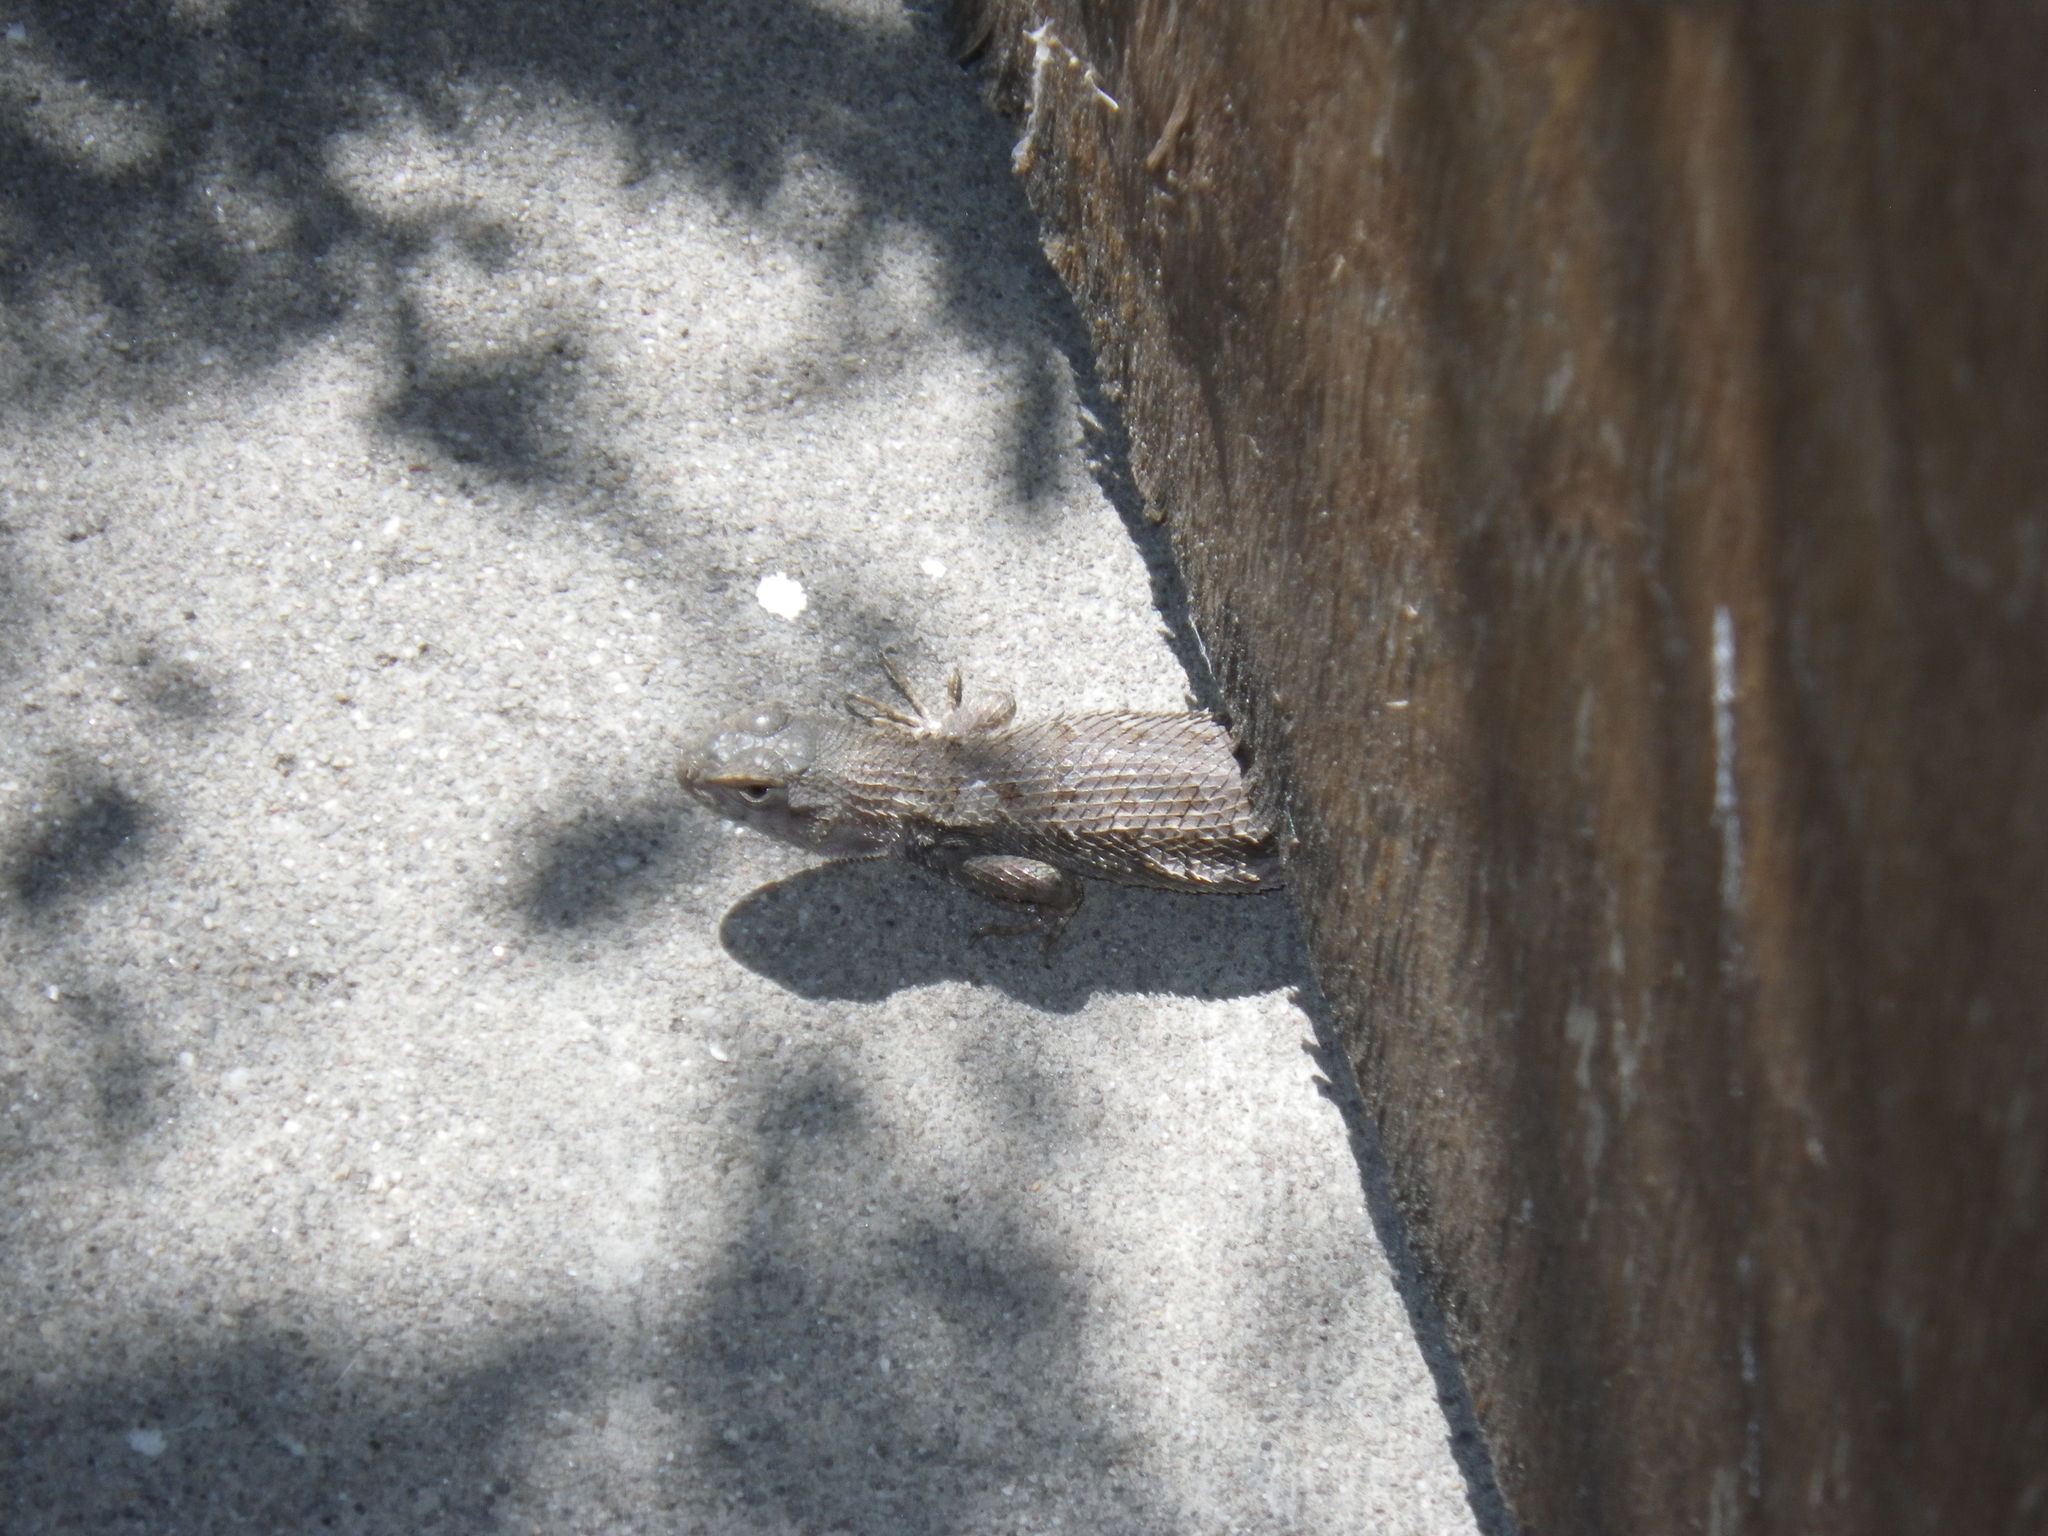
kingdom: Animalia
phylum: Chordata
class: Squamata
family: Phrynosomatidae
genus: Sceloporus
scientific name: Sceloporus occidentalis
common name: Western fence lizard
